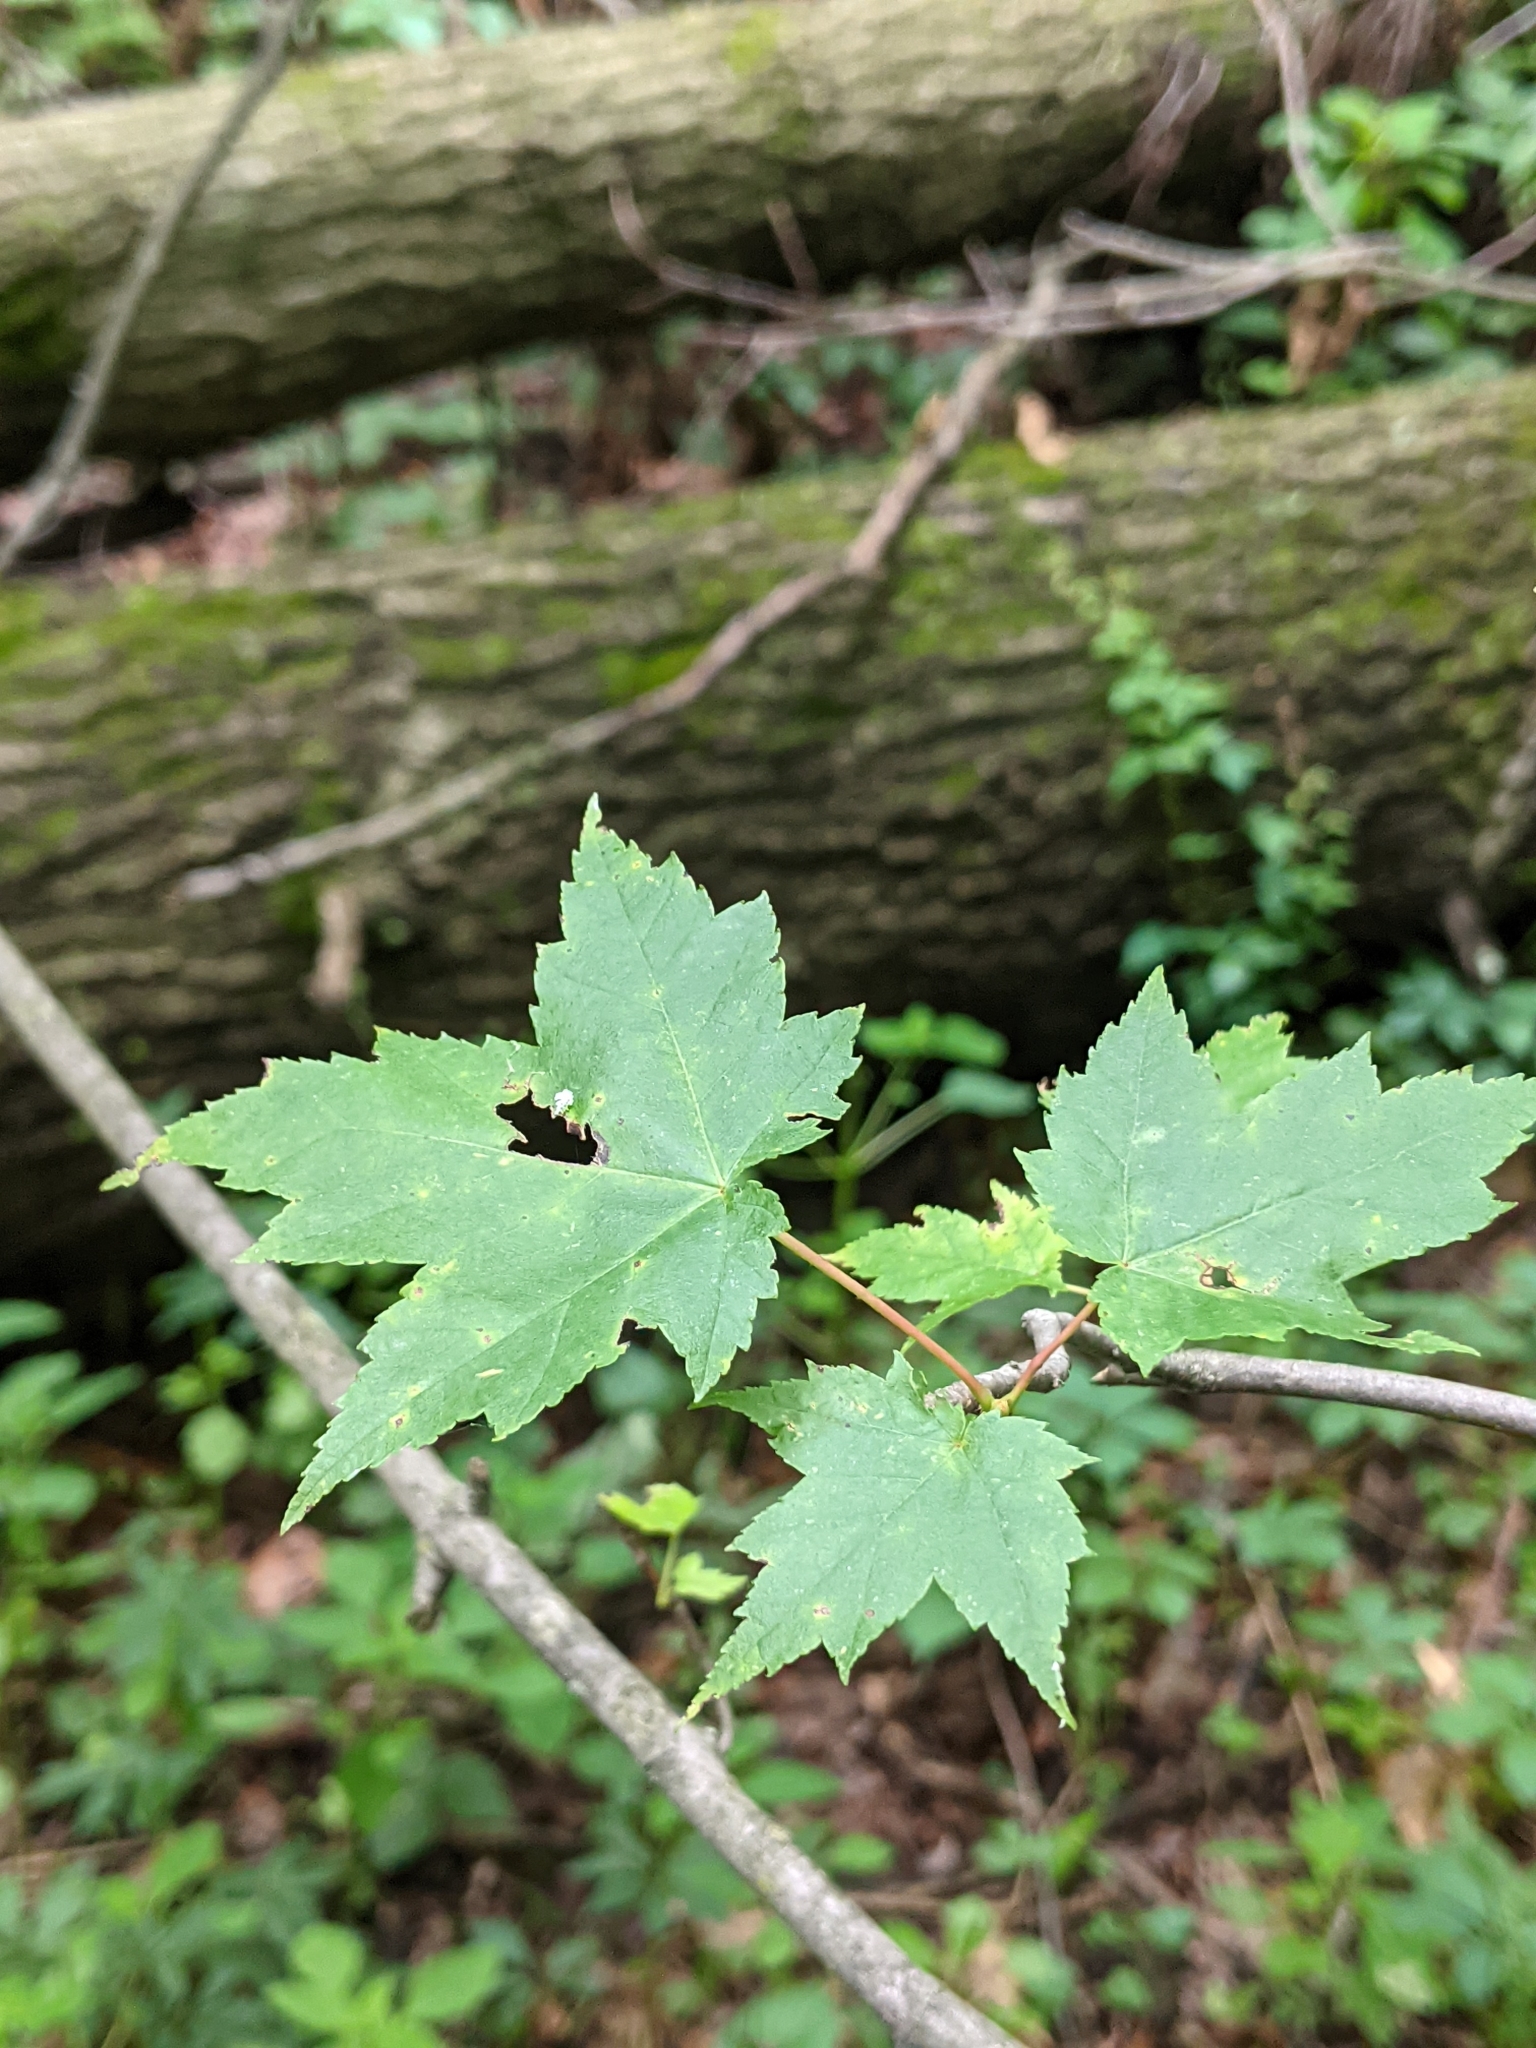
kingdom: Plantae
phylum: Tracheophyta
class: Magnoliopsida
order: Sapindales
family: Sapindaceae
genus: Acer
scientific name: Acer rubrum
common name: Red maple
